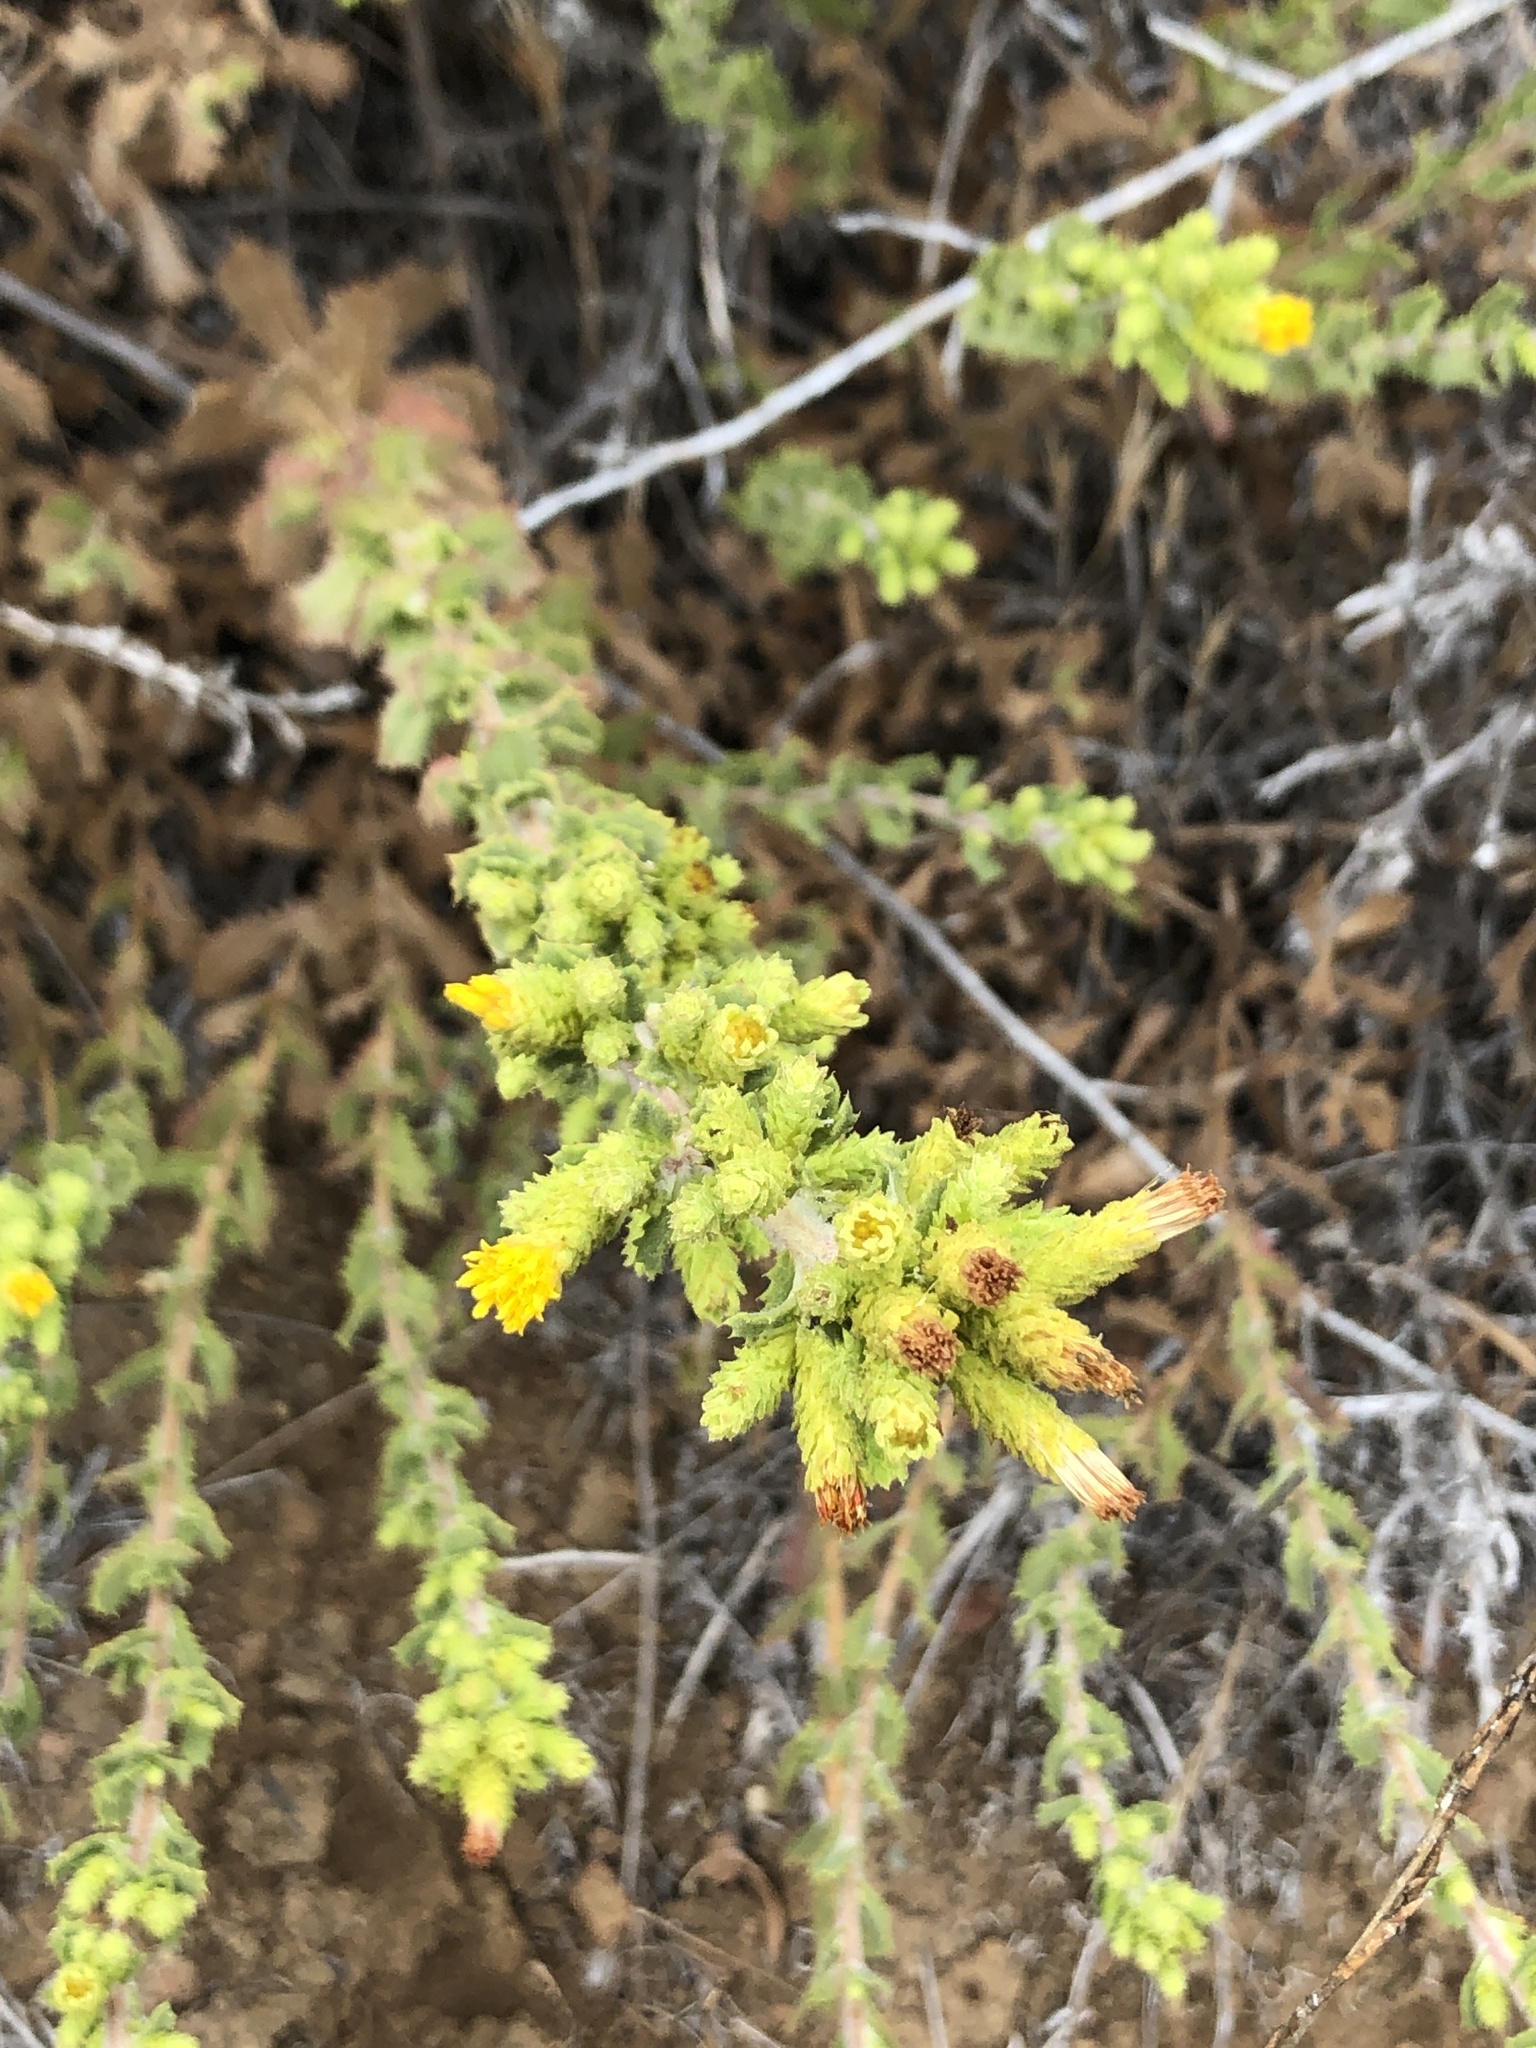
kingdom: Plantae
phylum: Tracheophyta
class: Magnoliopsida
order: Asterales
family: Asteraceae
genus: Hazardia
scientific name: Hazardia squarrosa
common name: Saw-tooth goldenbush
